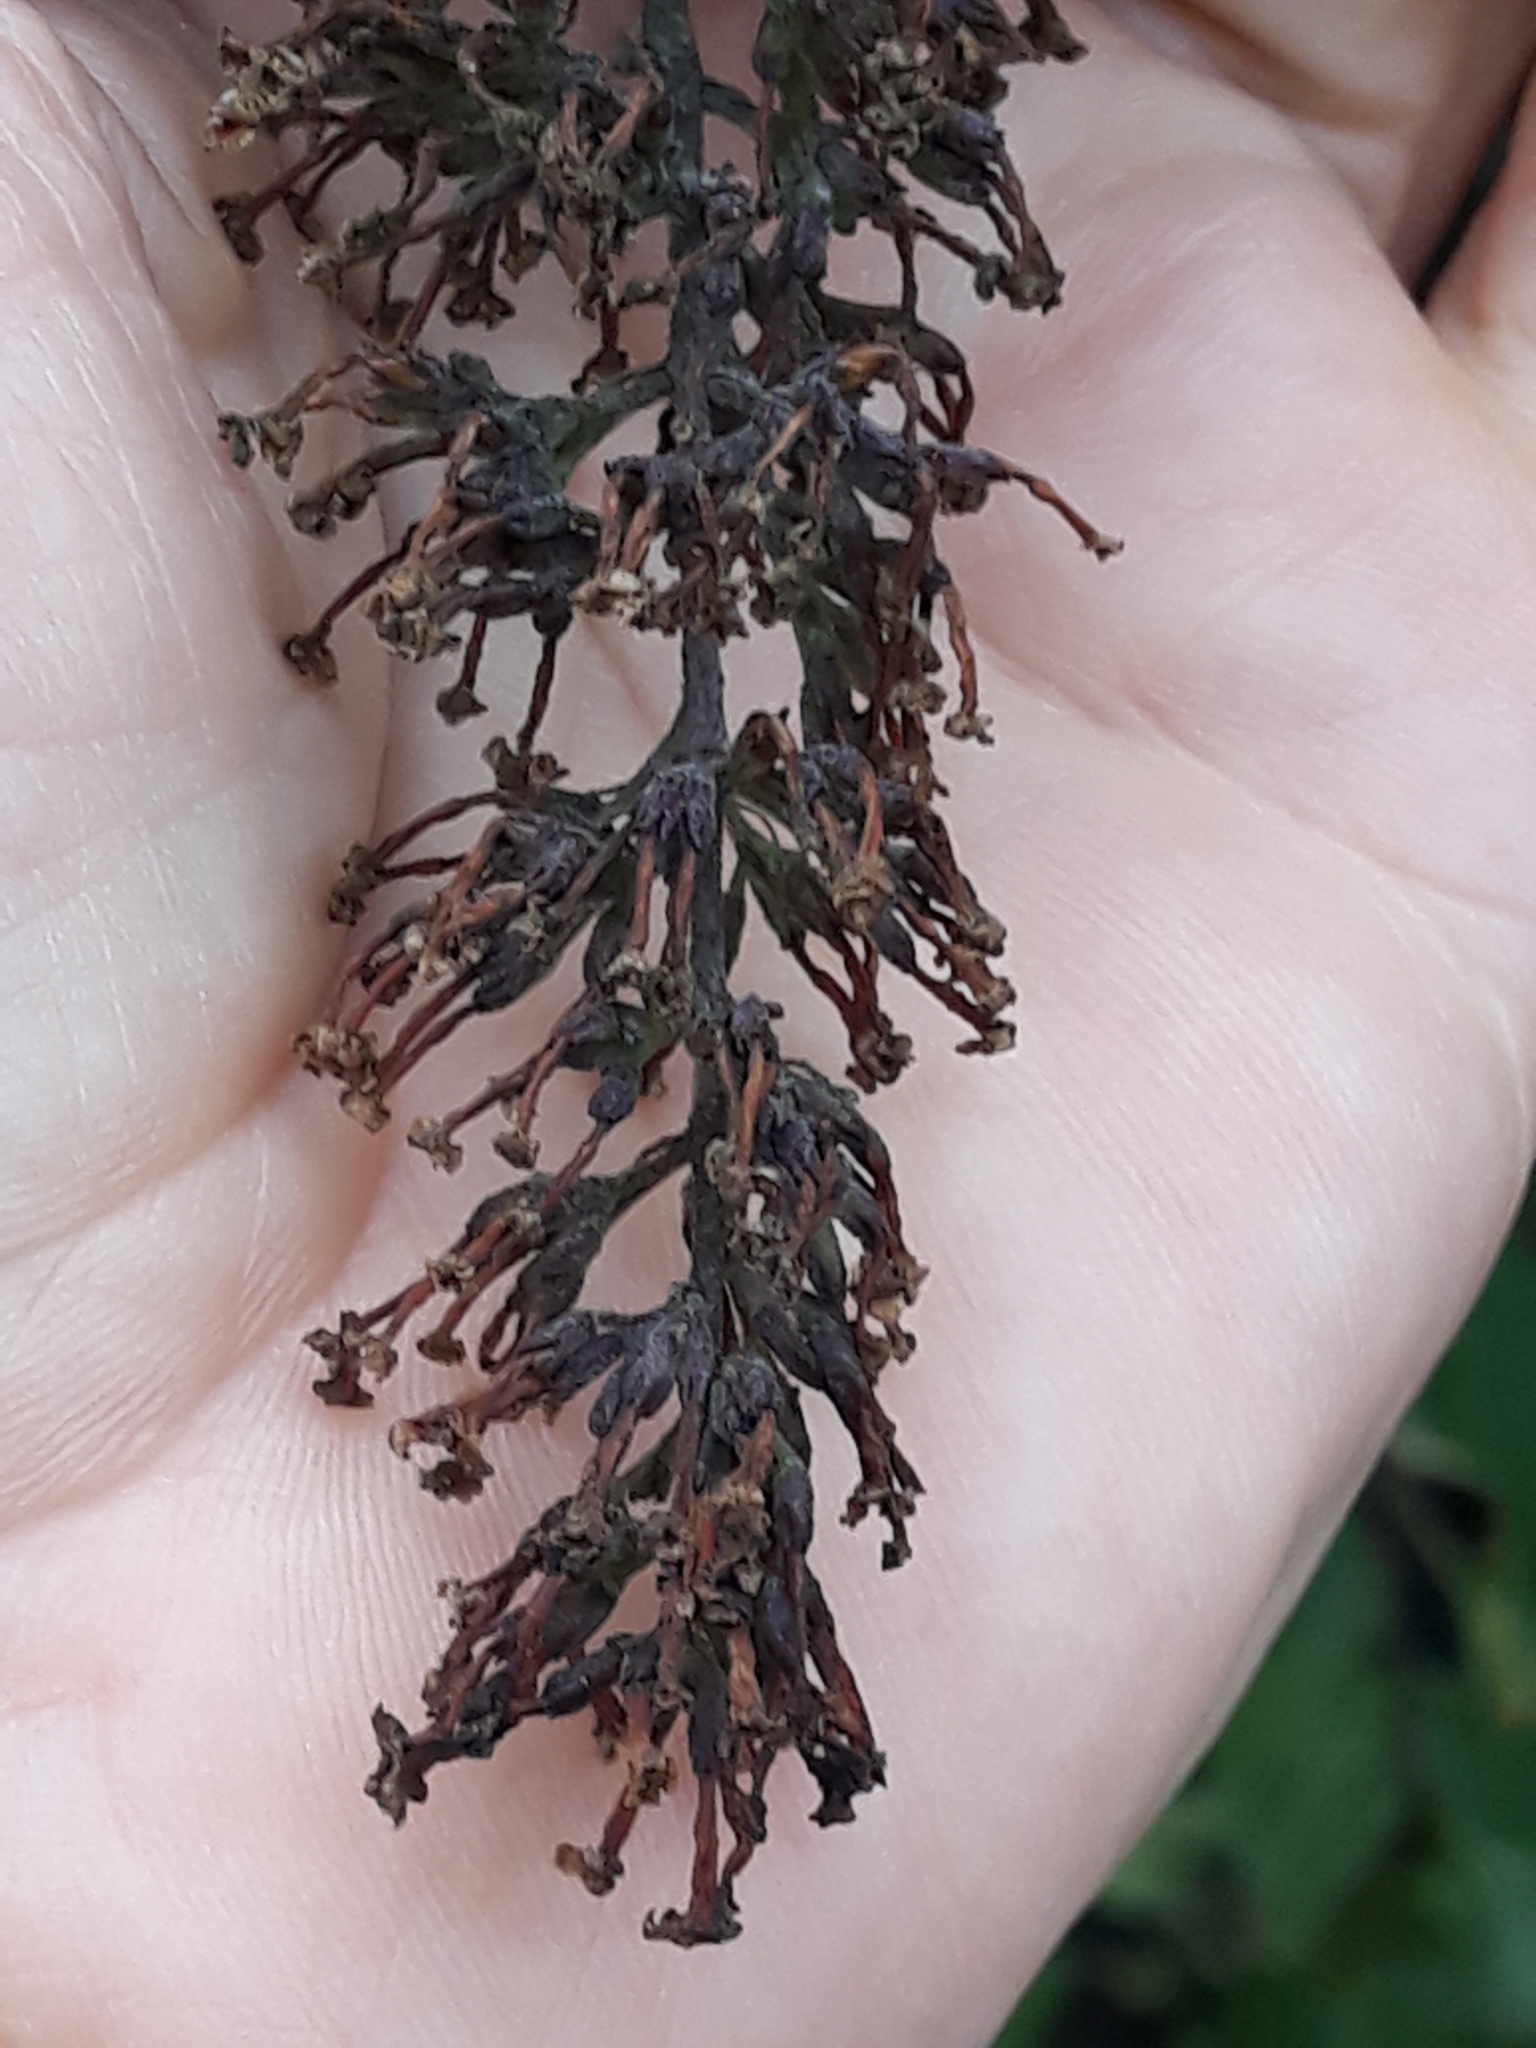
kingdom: Plantae
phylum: Tracheophyta
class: Magnoliopsida
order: Lamiales
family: Scrophulariaceae
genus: Buddleja
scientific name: Buddleja davidii
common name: Butterfly-bush
